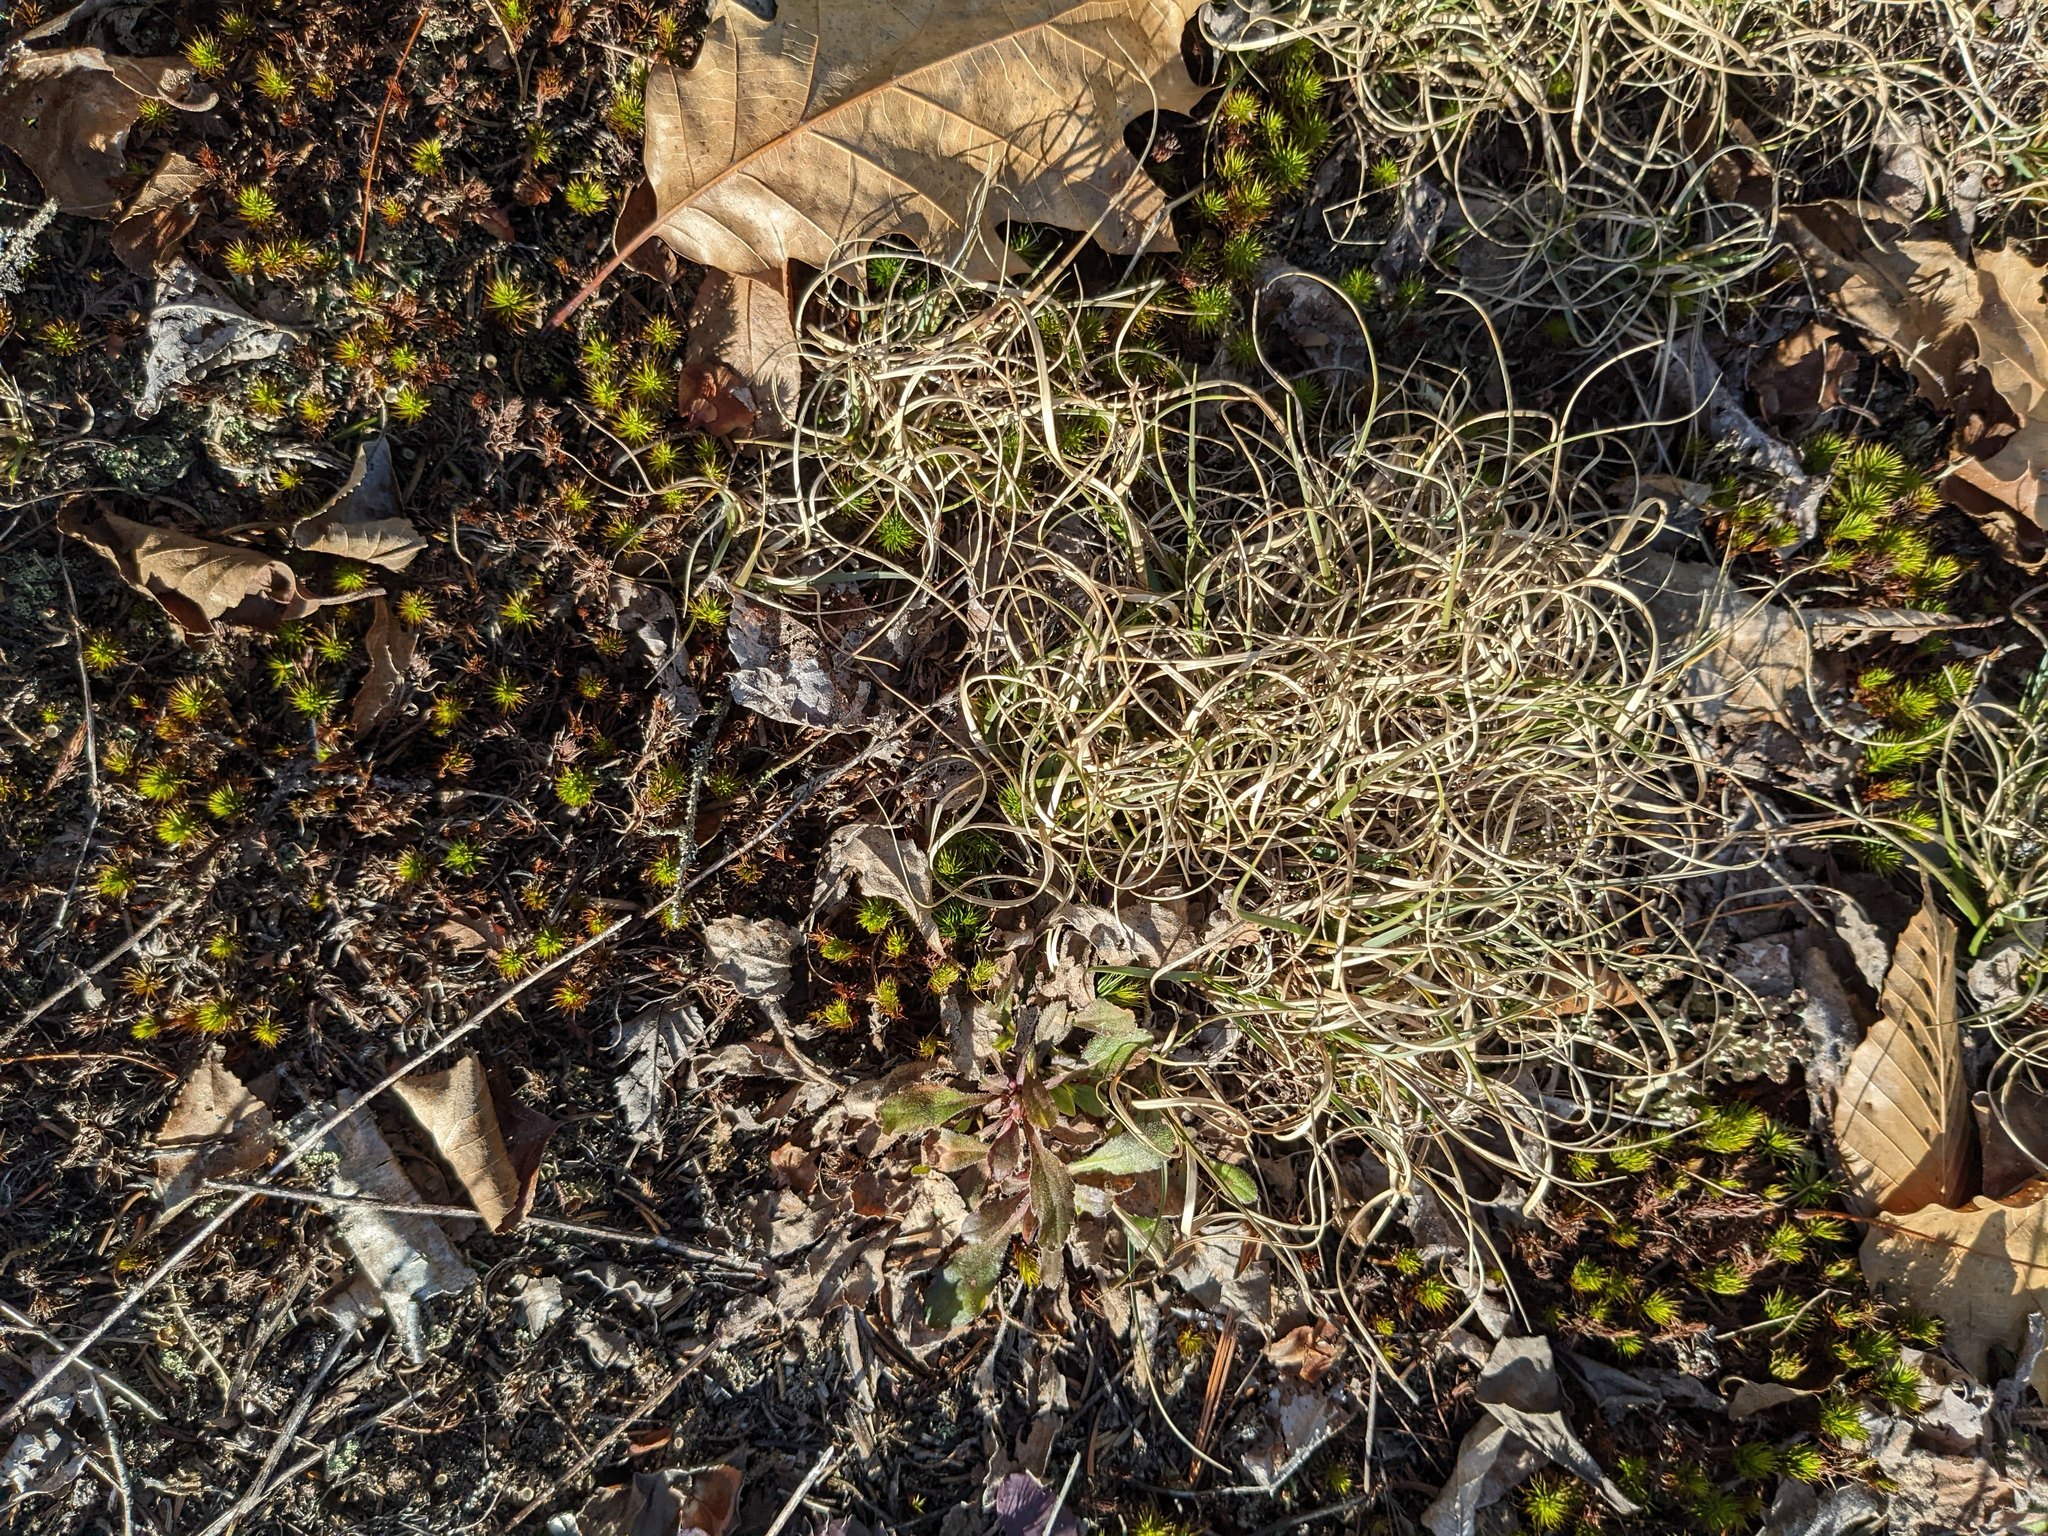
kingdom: Plantae
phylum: Tracheophyta
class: Liliopsida
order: Poales
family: Poaceae
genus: Danthonia
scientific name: Danthonia spicata
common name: Common wild oatgrass
